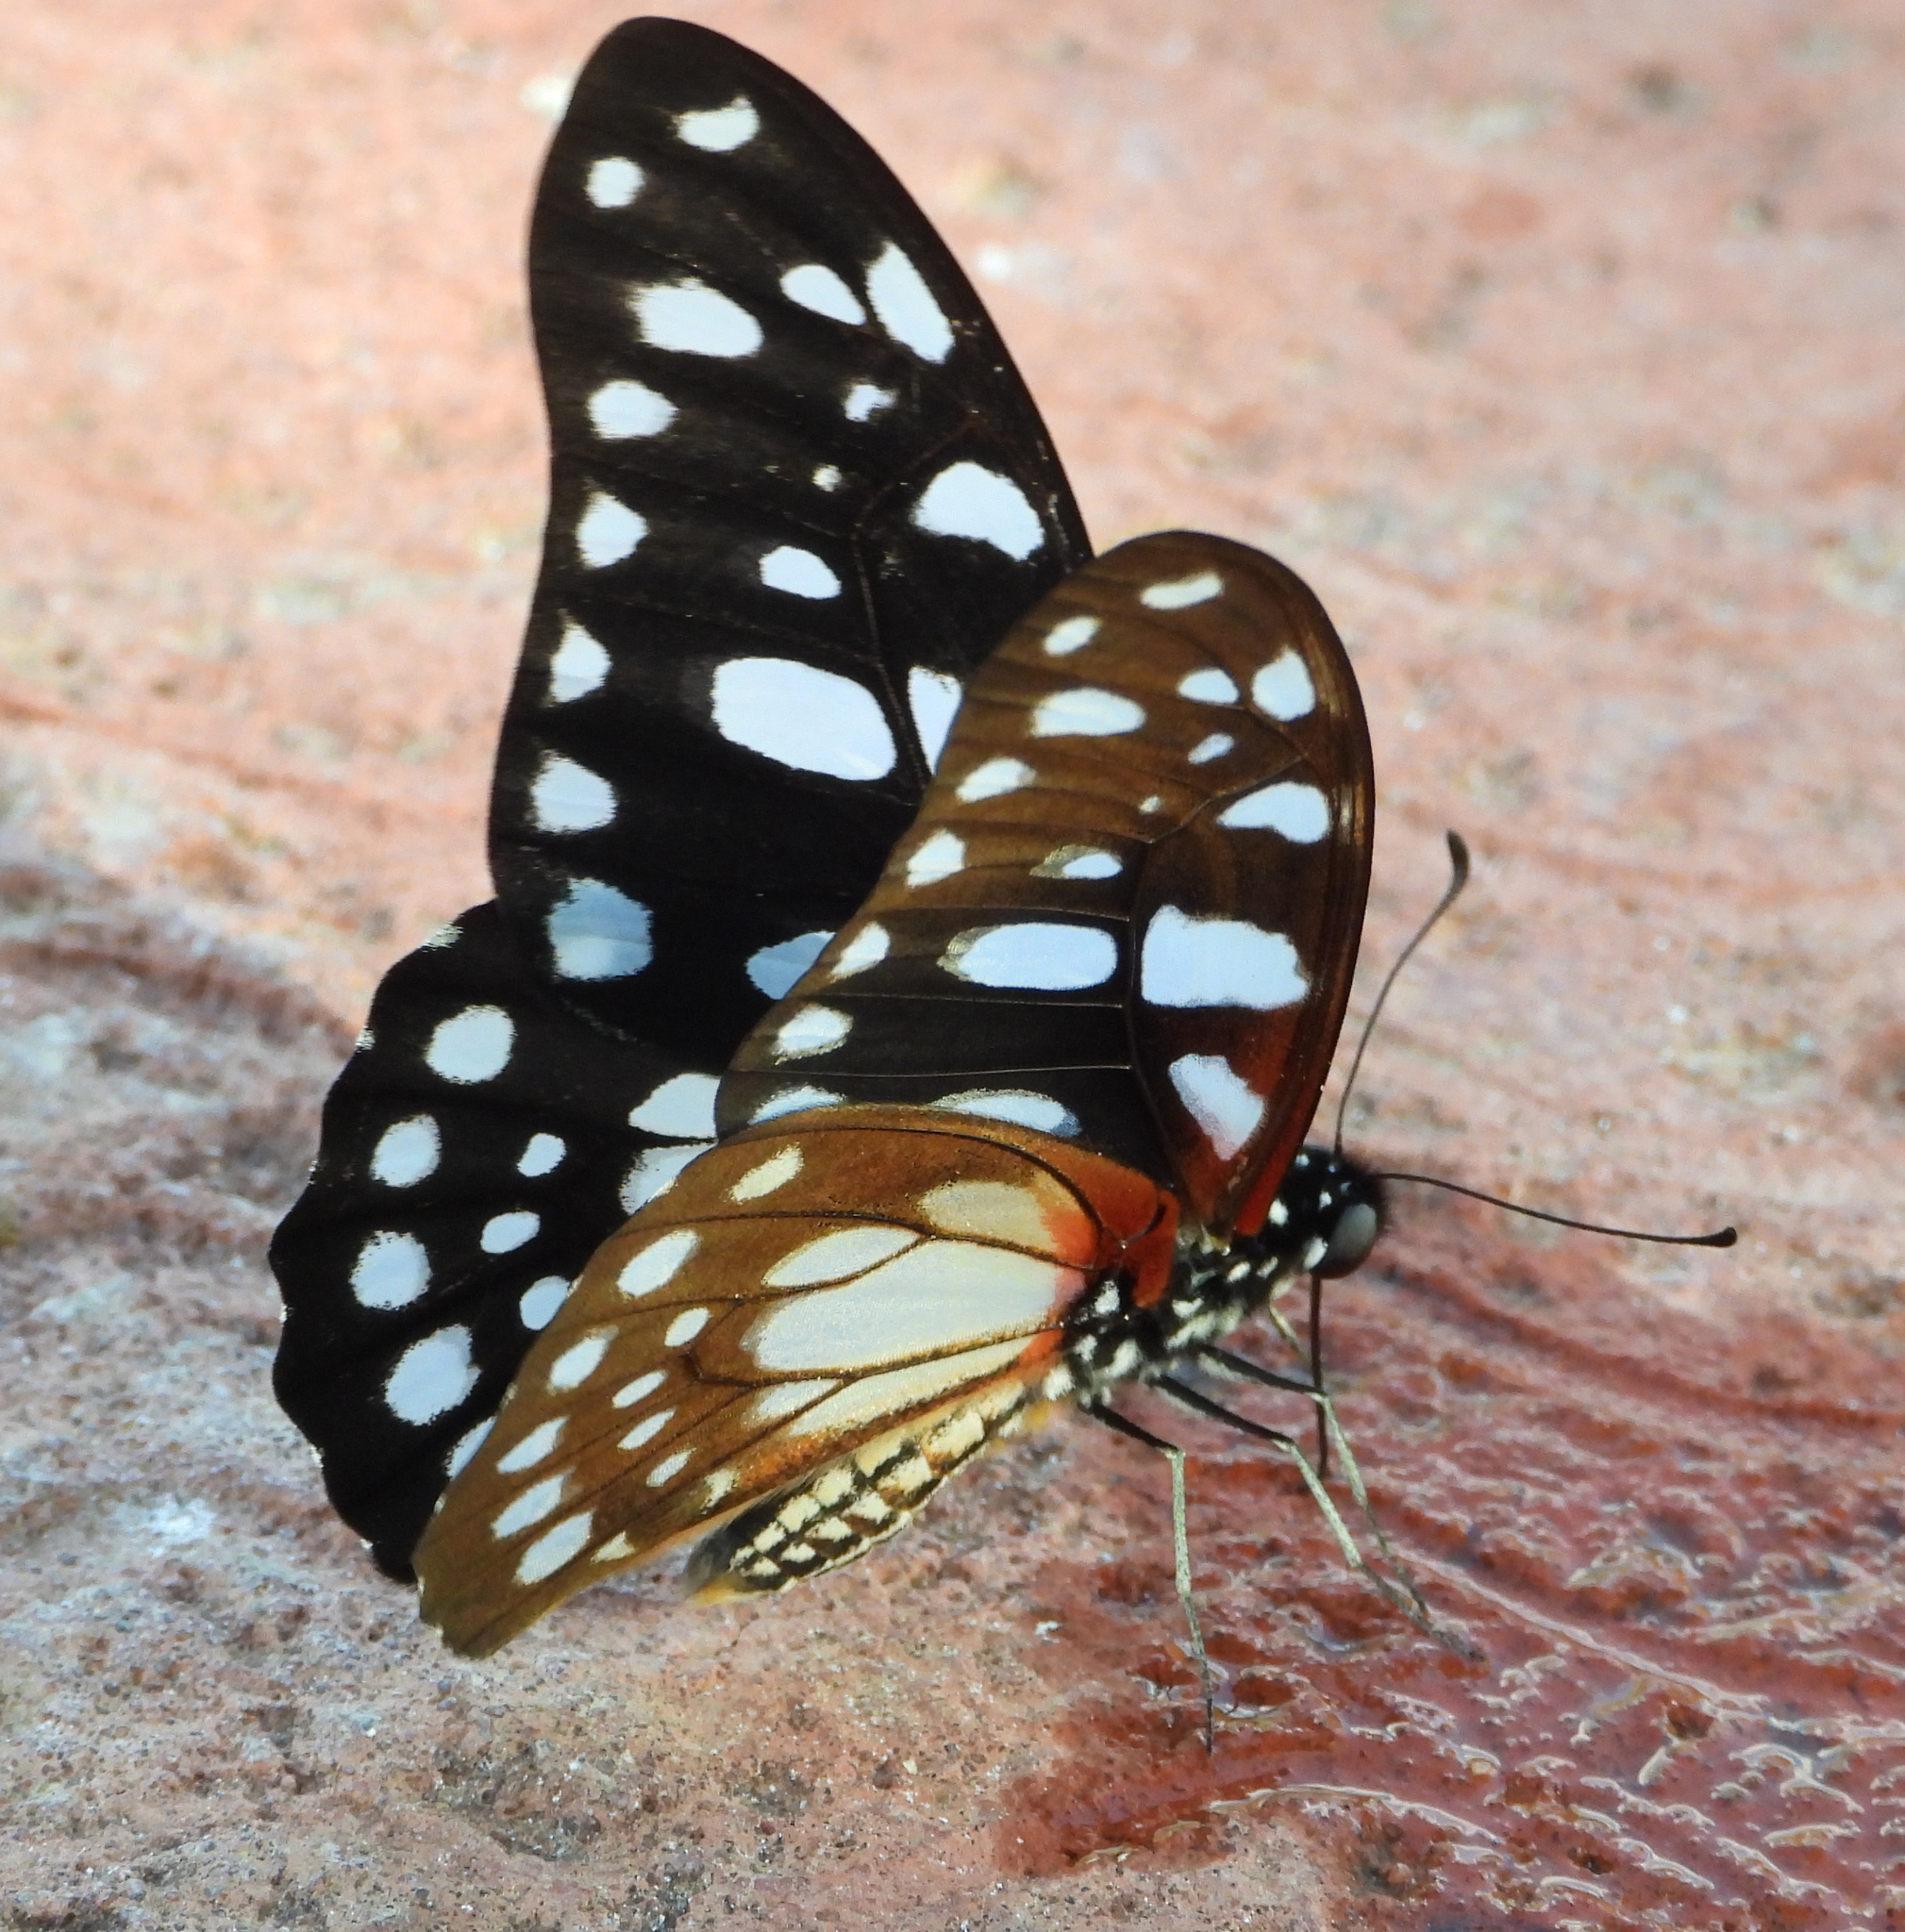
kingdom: Animalia
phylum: Arthropoda
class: Insecta
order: Lepidoptera
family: Papilionidae
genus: Graphium
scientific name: Graphium leonidas
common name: Common graphium
